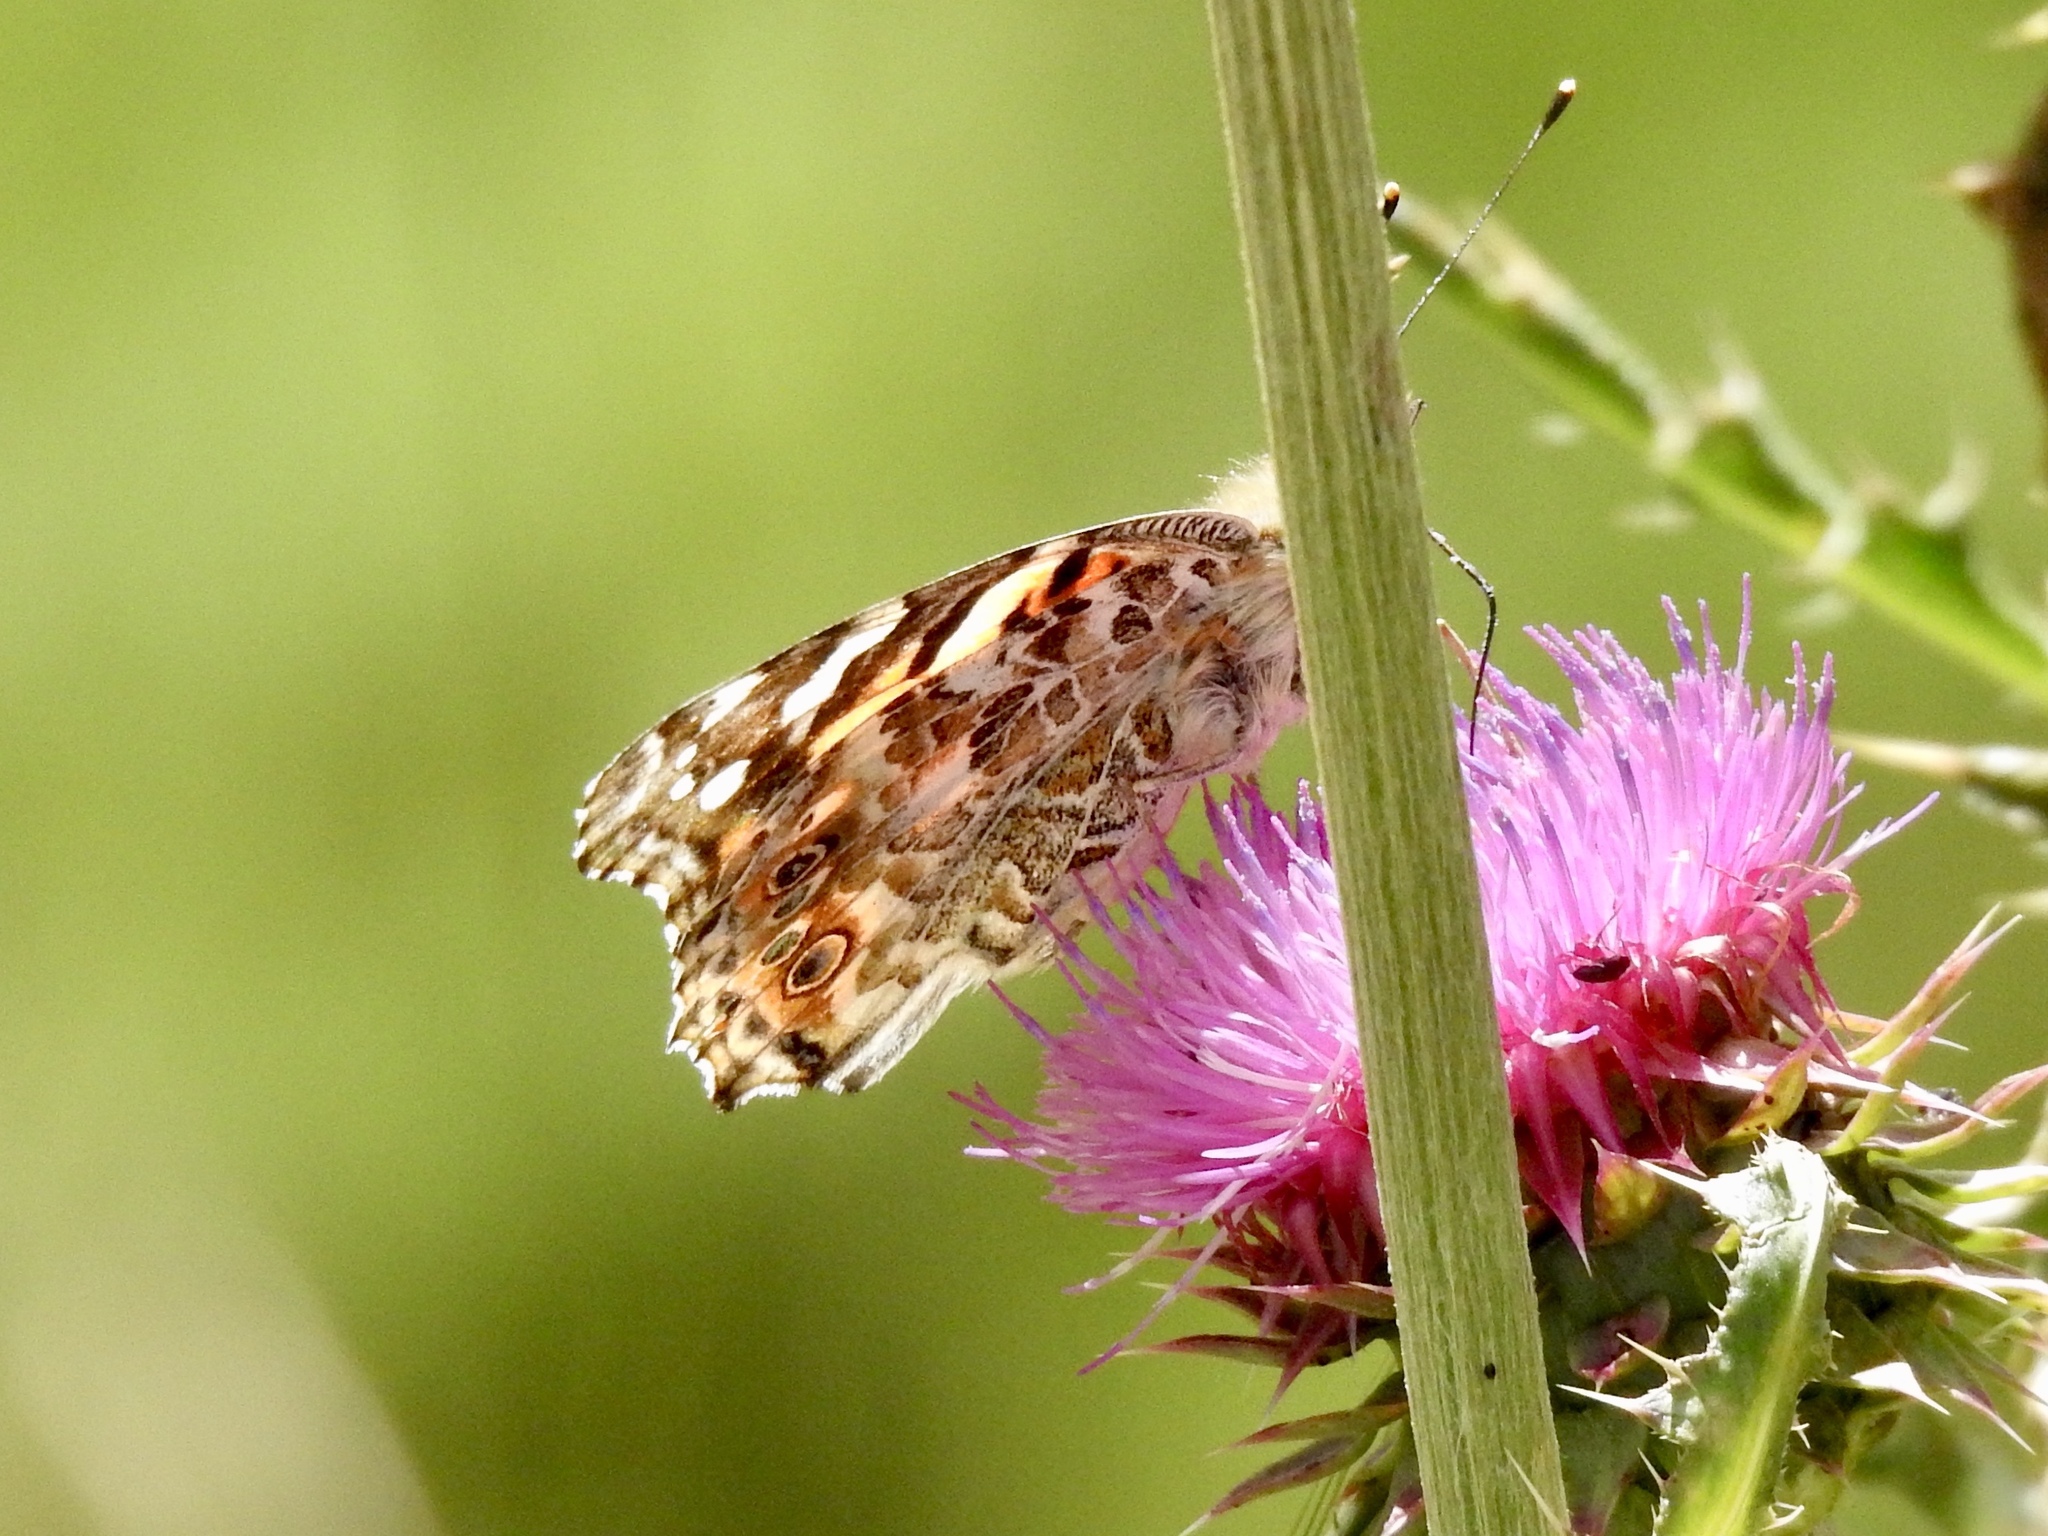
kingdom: Animalia
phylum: Arthropoda
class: Insecta
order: Lepidoptera
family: Nymphalidae
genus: Vanessa
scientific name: Vanessa cardui
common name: Painted lady
